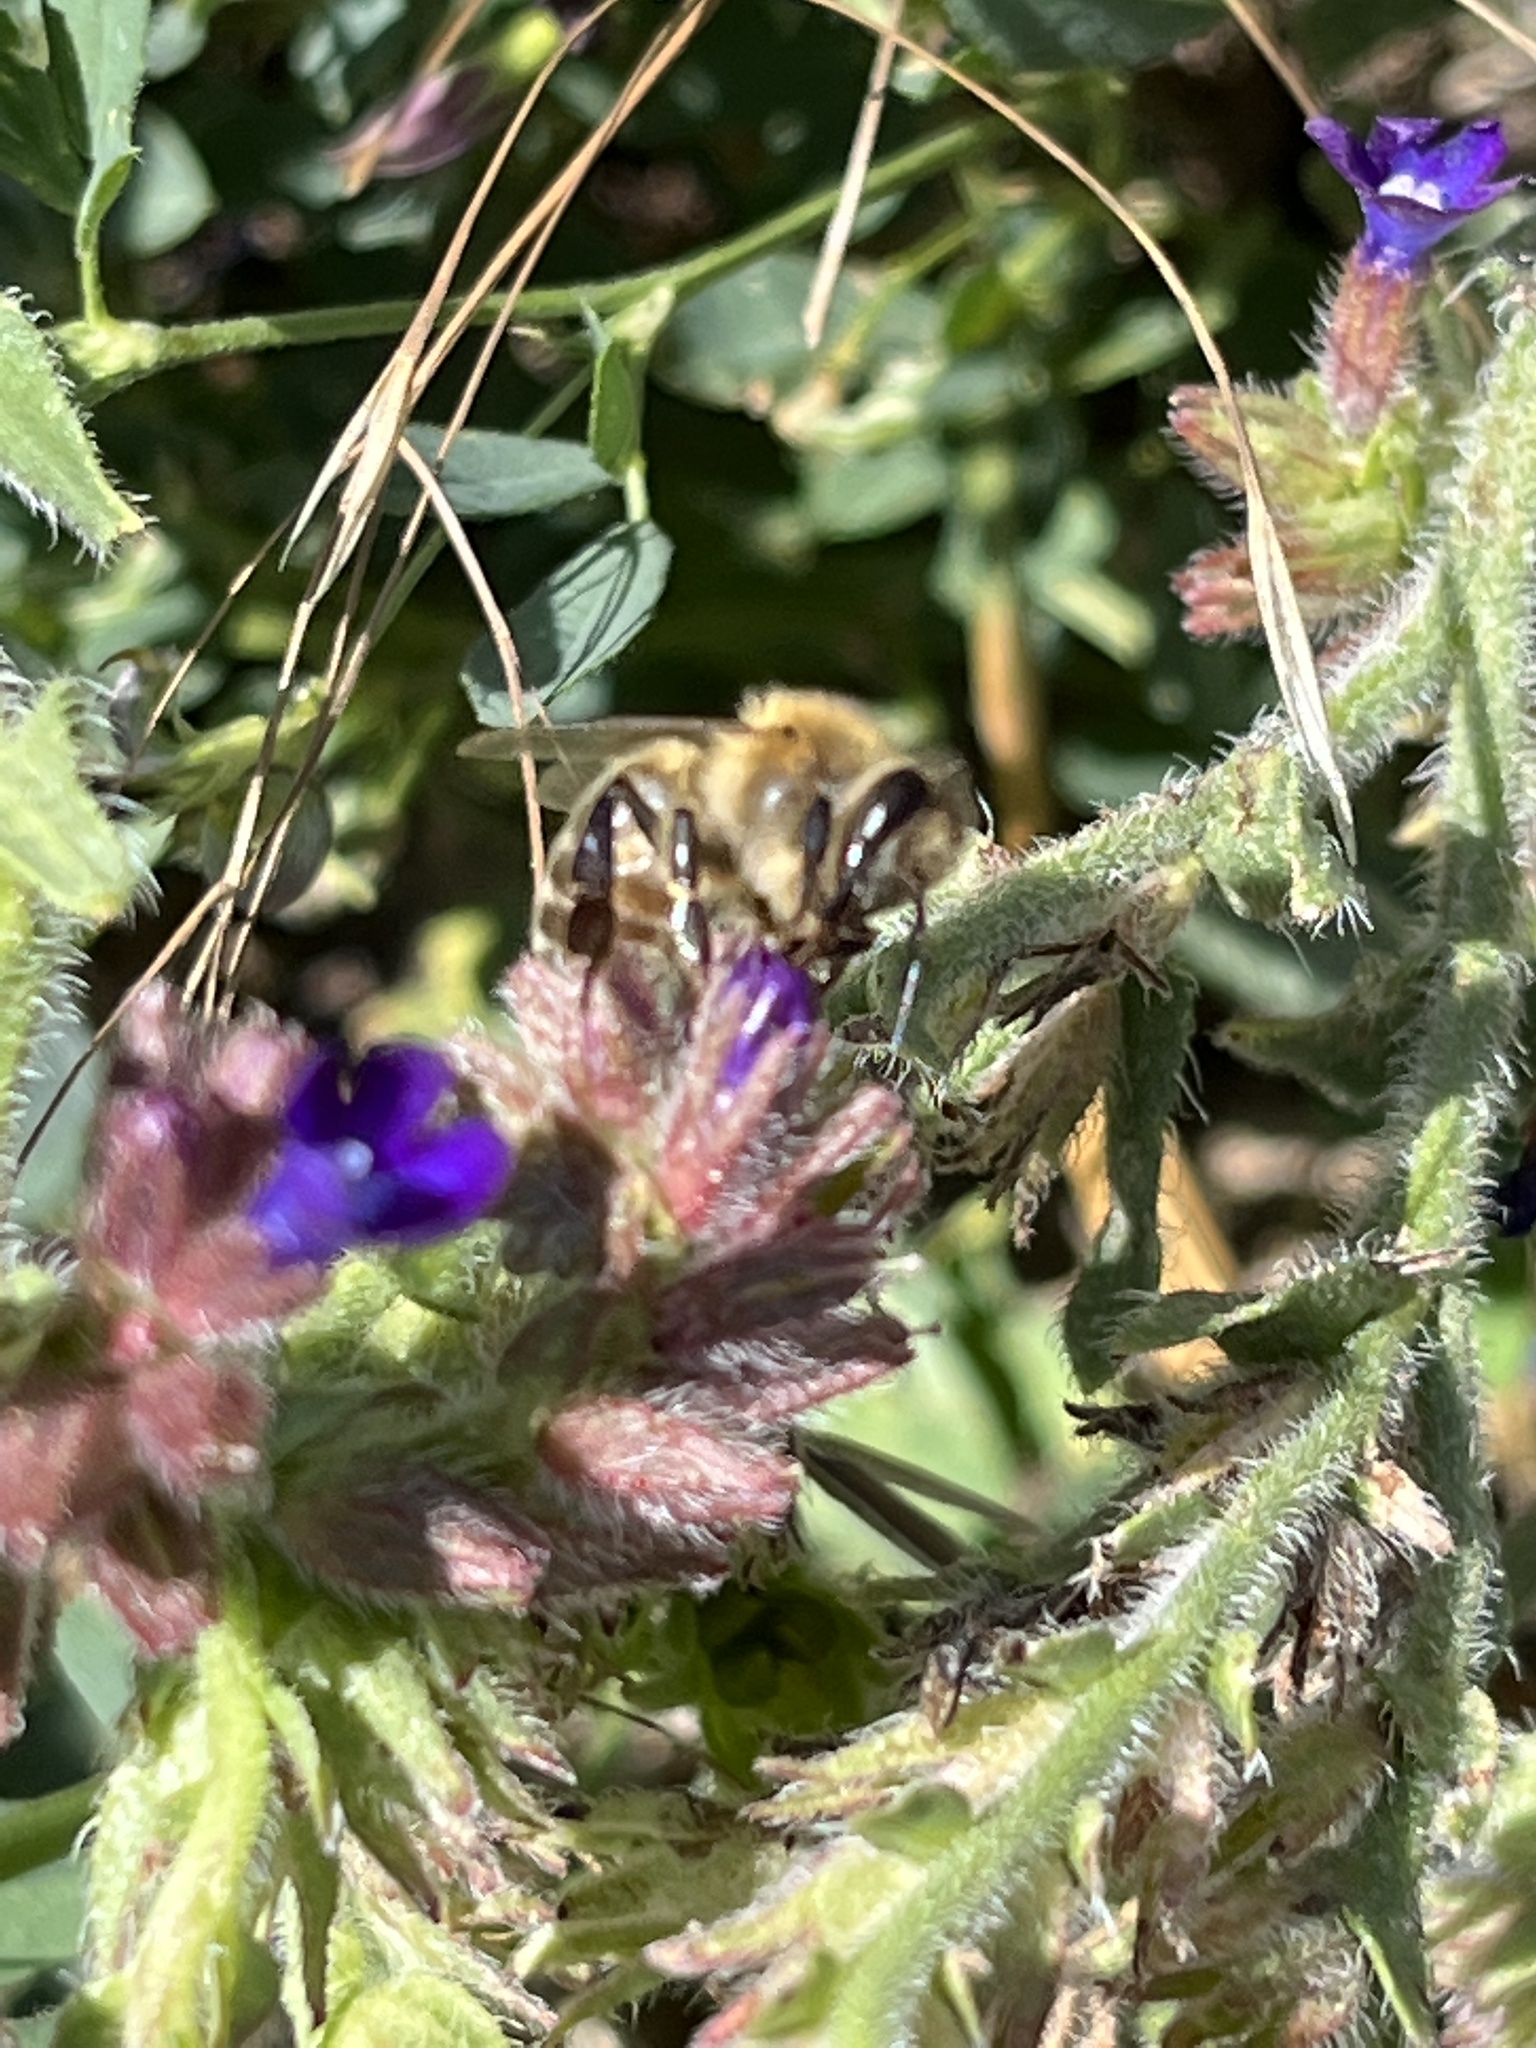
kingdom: Animalia
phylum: Arthropoda
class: Insecta
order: Hymenoptera
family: Apidae
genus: Apis
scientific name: Apis mellifera
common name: Honey bee
